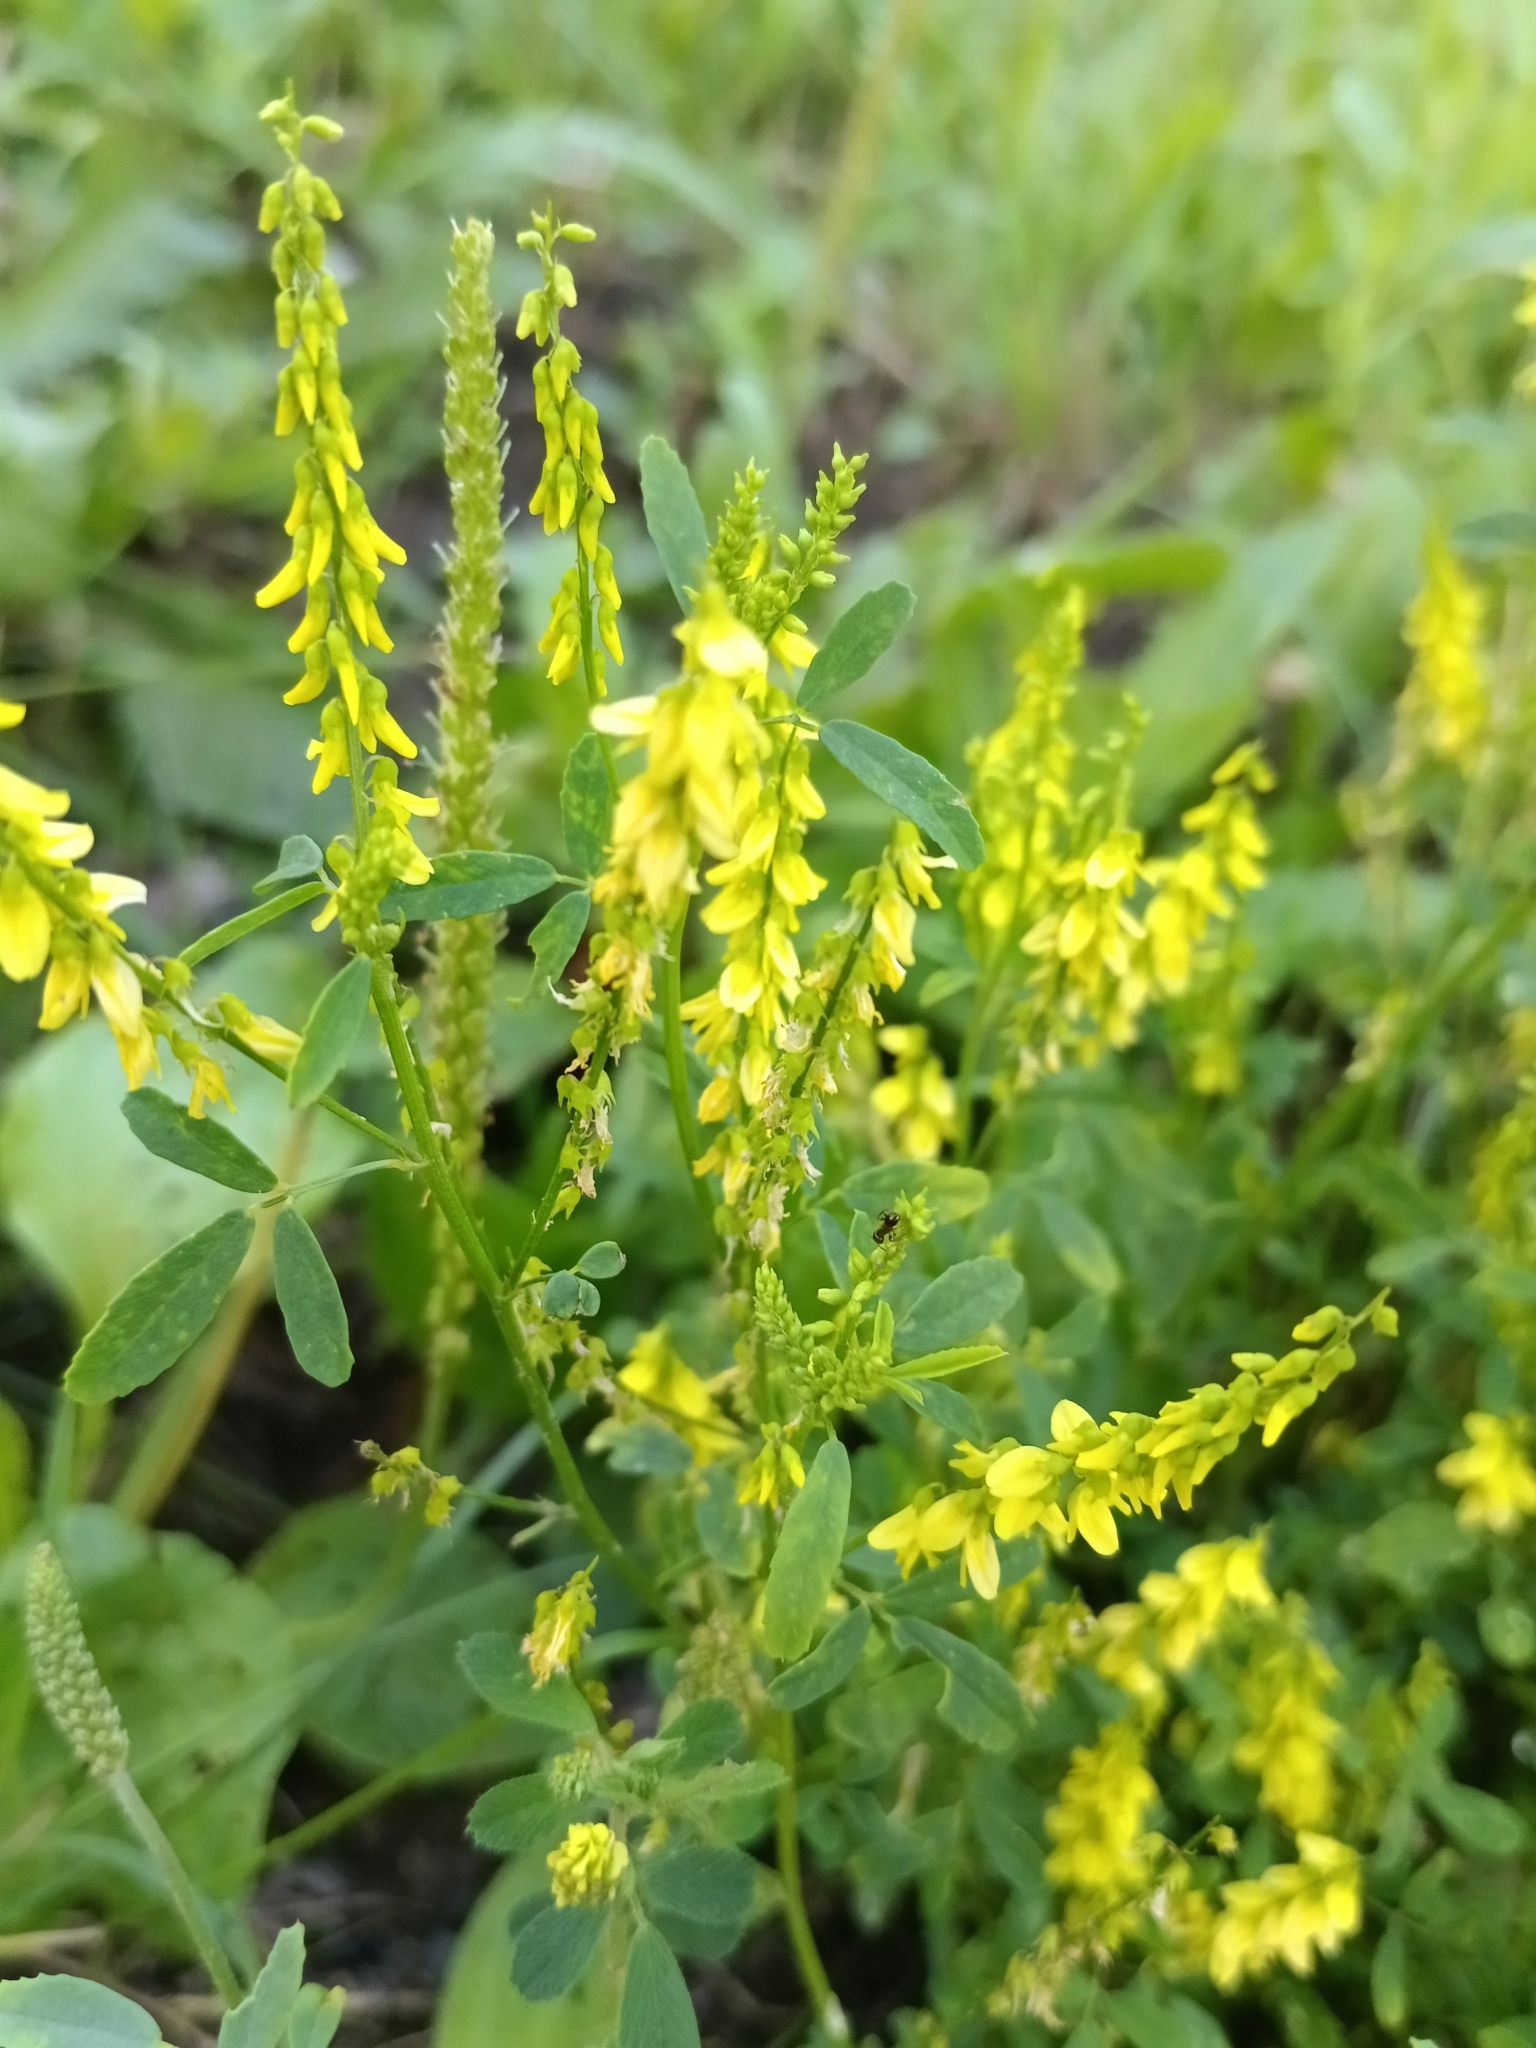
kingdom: Plantae
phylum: Tracheophyta
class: Magnoliopsida
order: Fabales
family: Fabaceae
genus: Melilotus
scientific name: Melilotus officinalis
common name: Sweetclover
